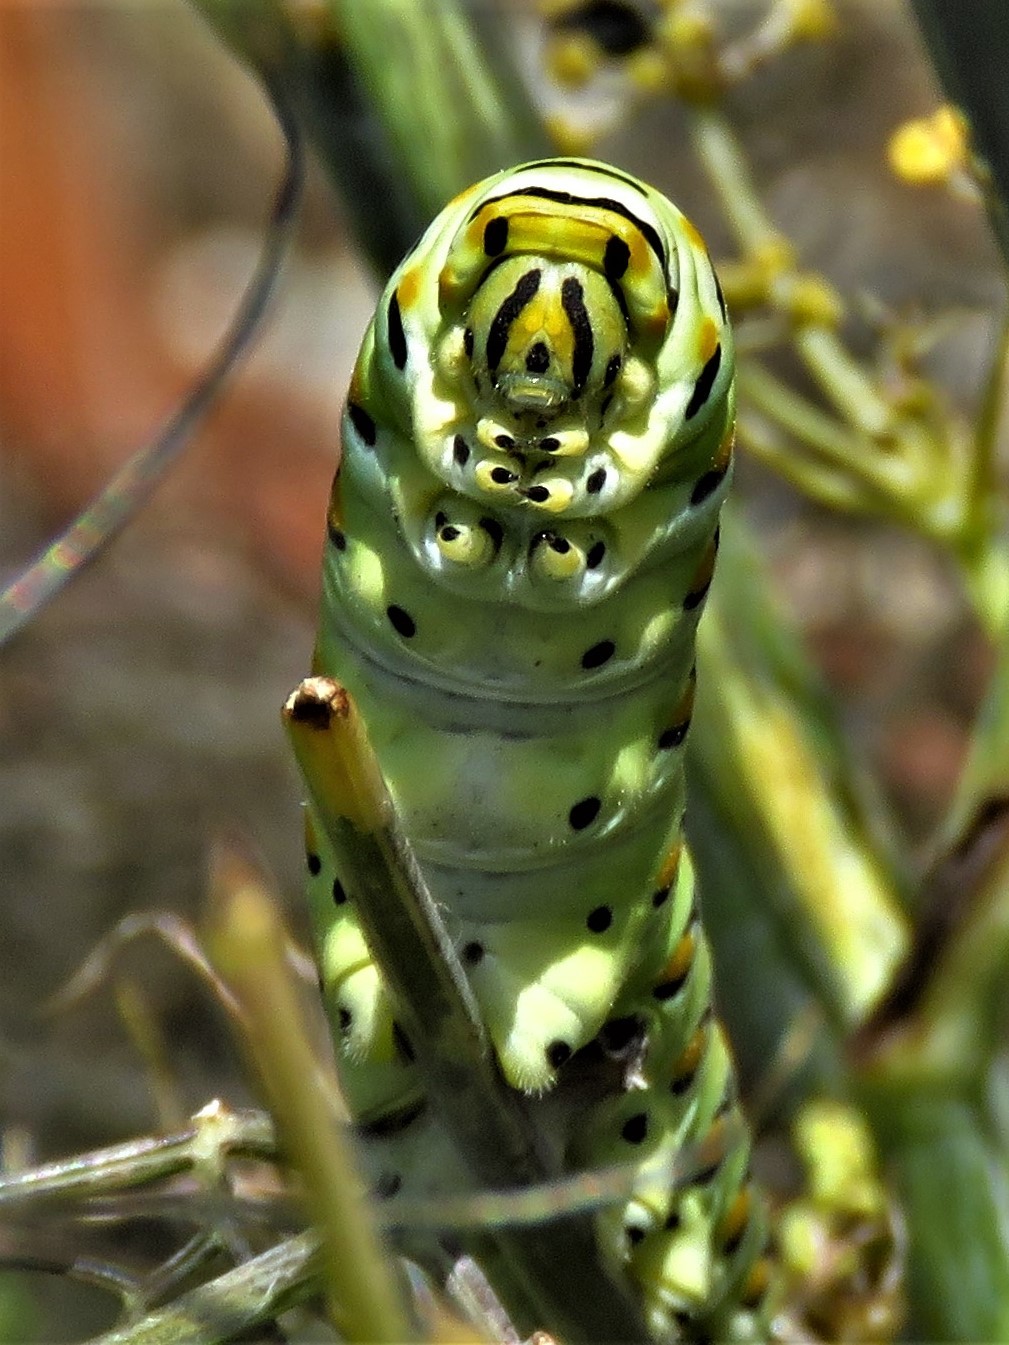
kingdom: Animalia
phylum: Arthropoda
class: Insecta
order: Lepidoptera
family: Papilionidae
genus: Papilio
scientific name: Papilio polyxenes
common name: Black swallowtail
